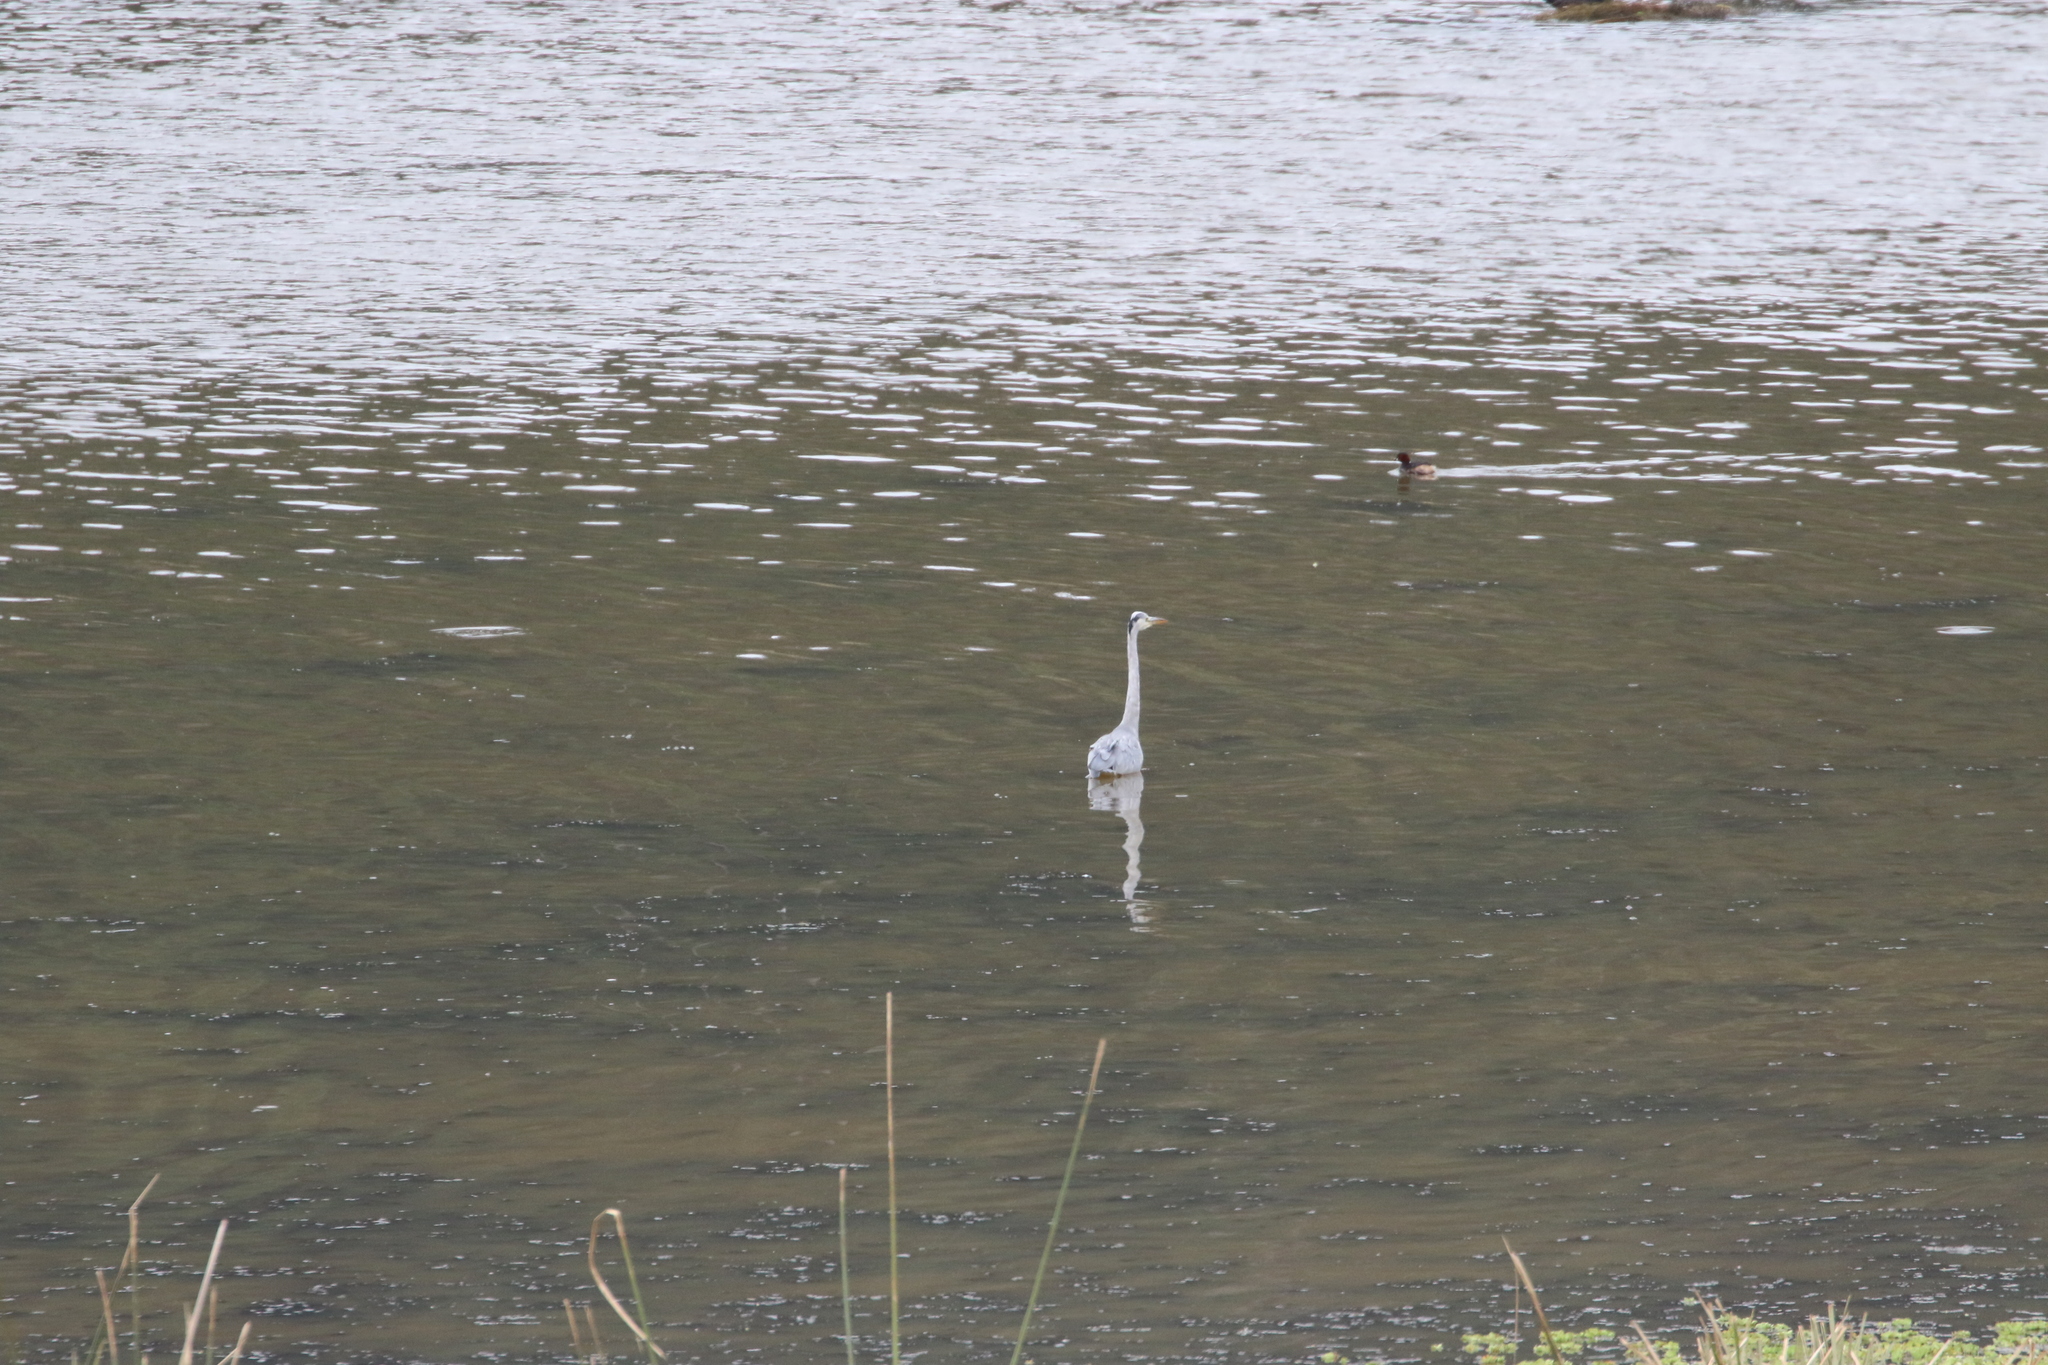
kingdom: Animalia
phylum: Chordata
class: Aves
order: Pelecaniformes
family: Ardeidae
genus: Ardea
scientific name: Ardea cinerea
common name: Grey heron
